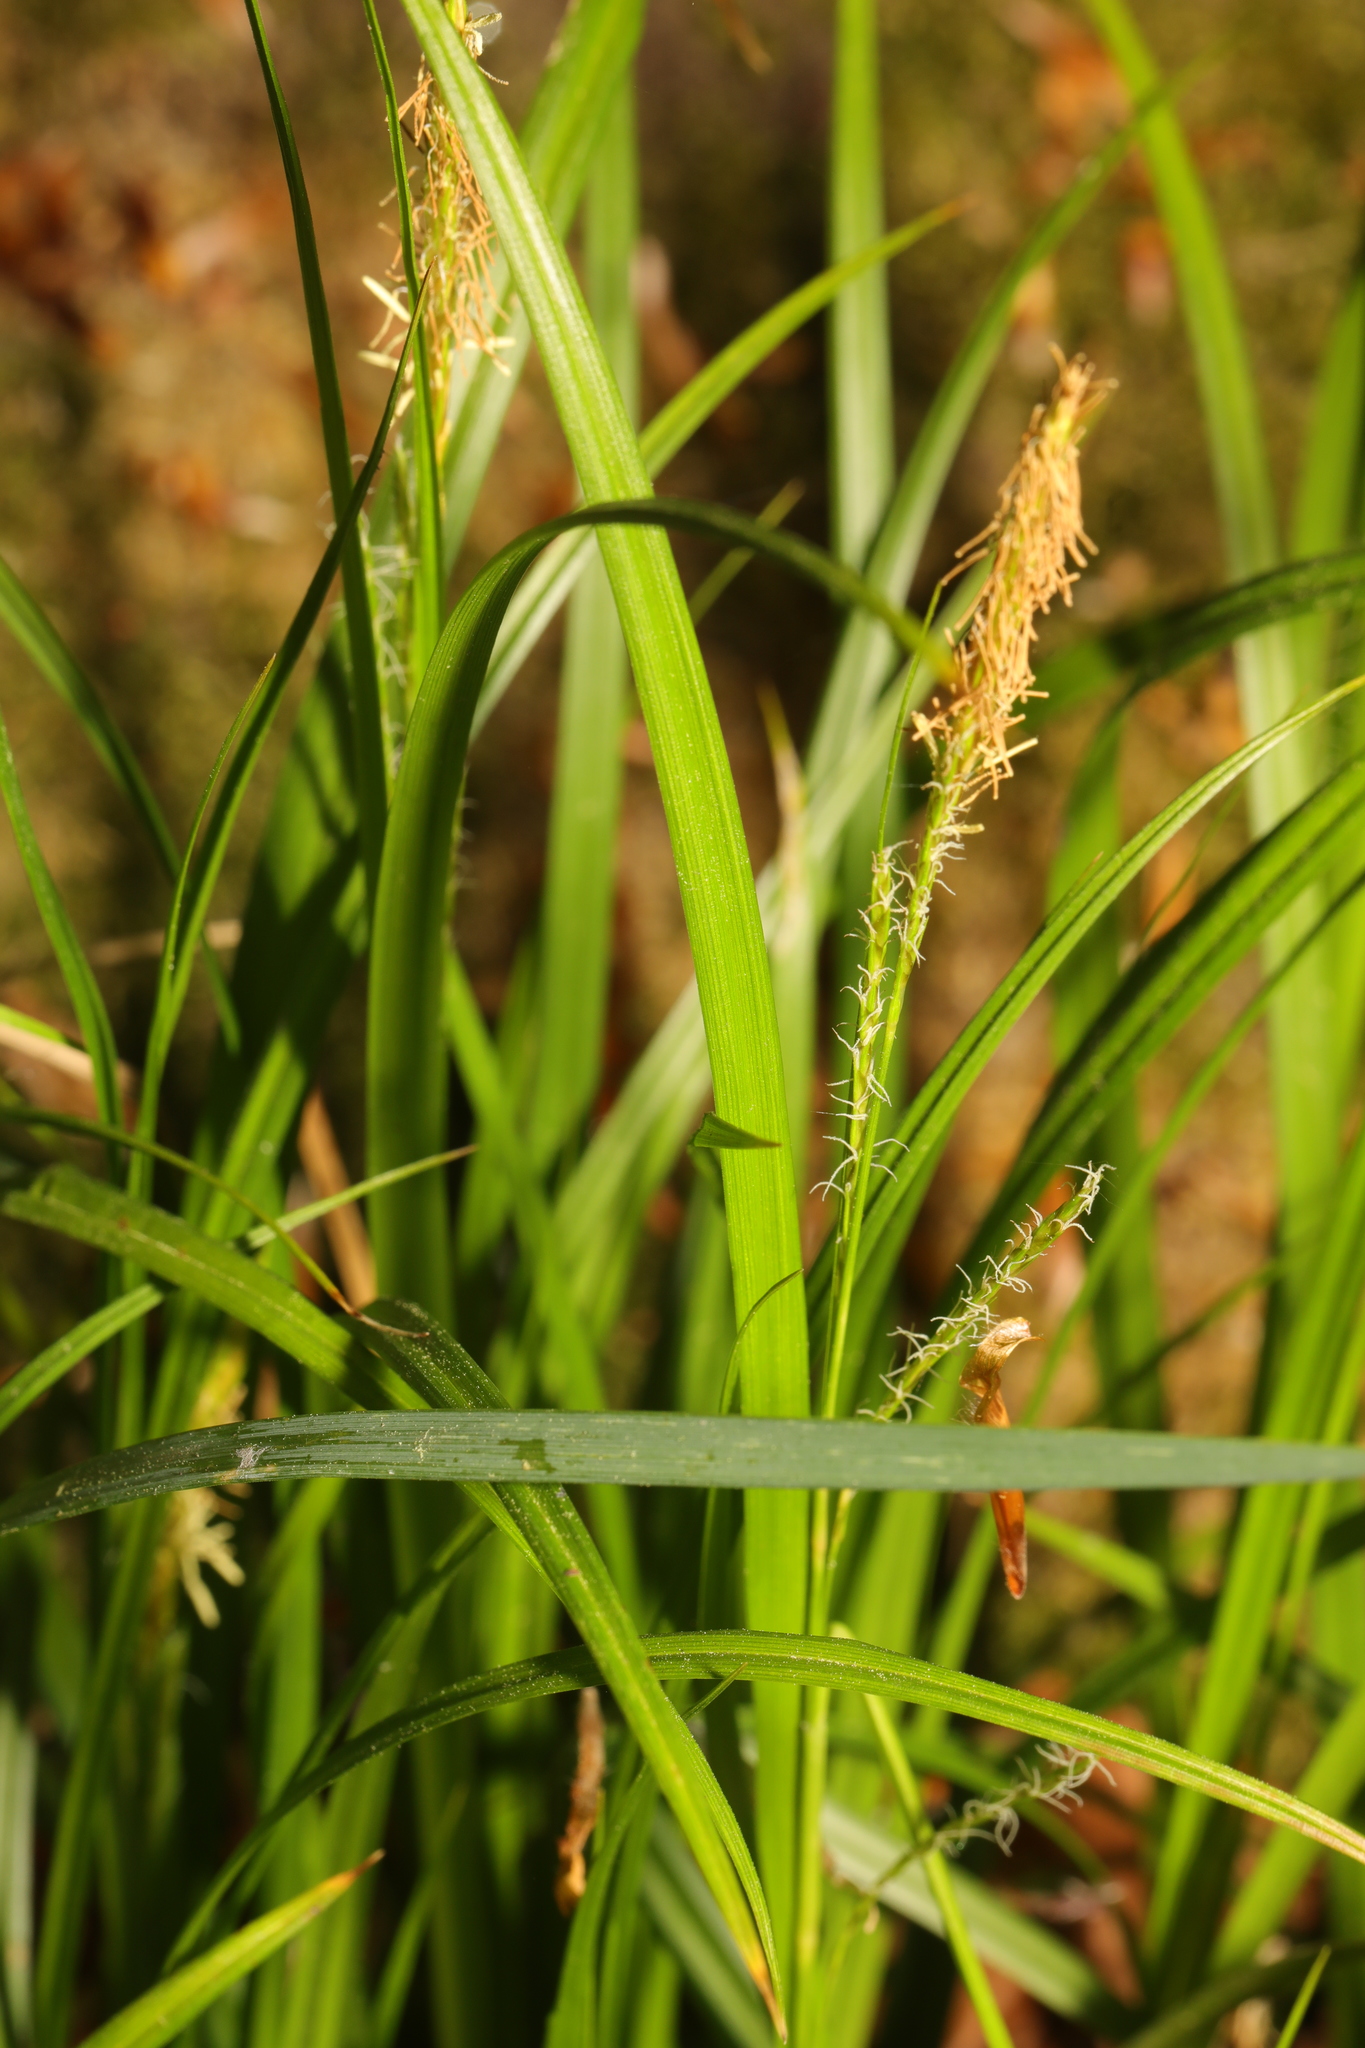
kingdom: Plantae
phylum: Tracheophyta
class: Liliopsida
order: Poales
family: Cyperaceae
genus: Carex
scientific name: Carex sylvatica
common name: Wood-sedge
